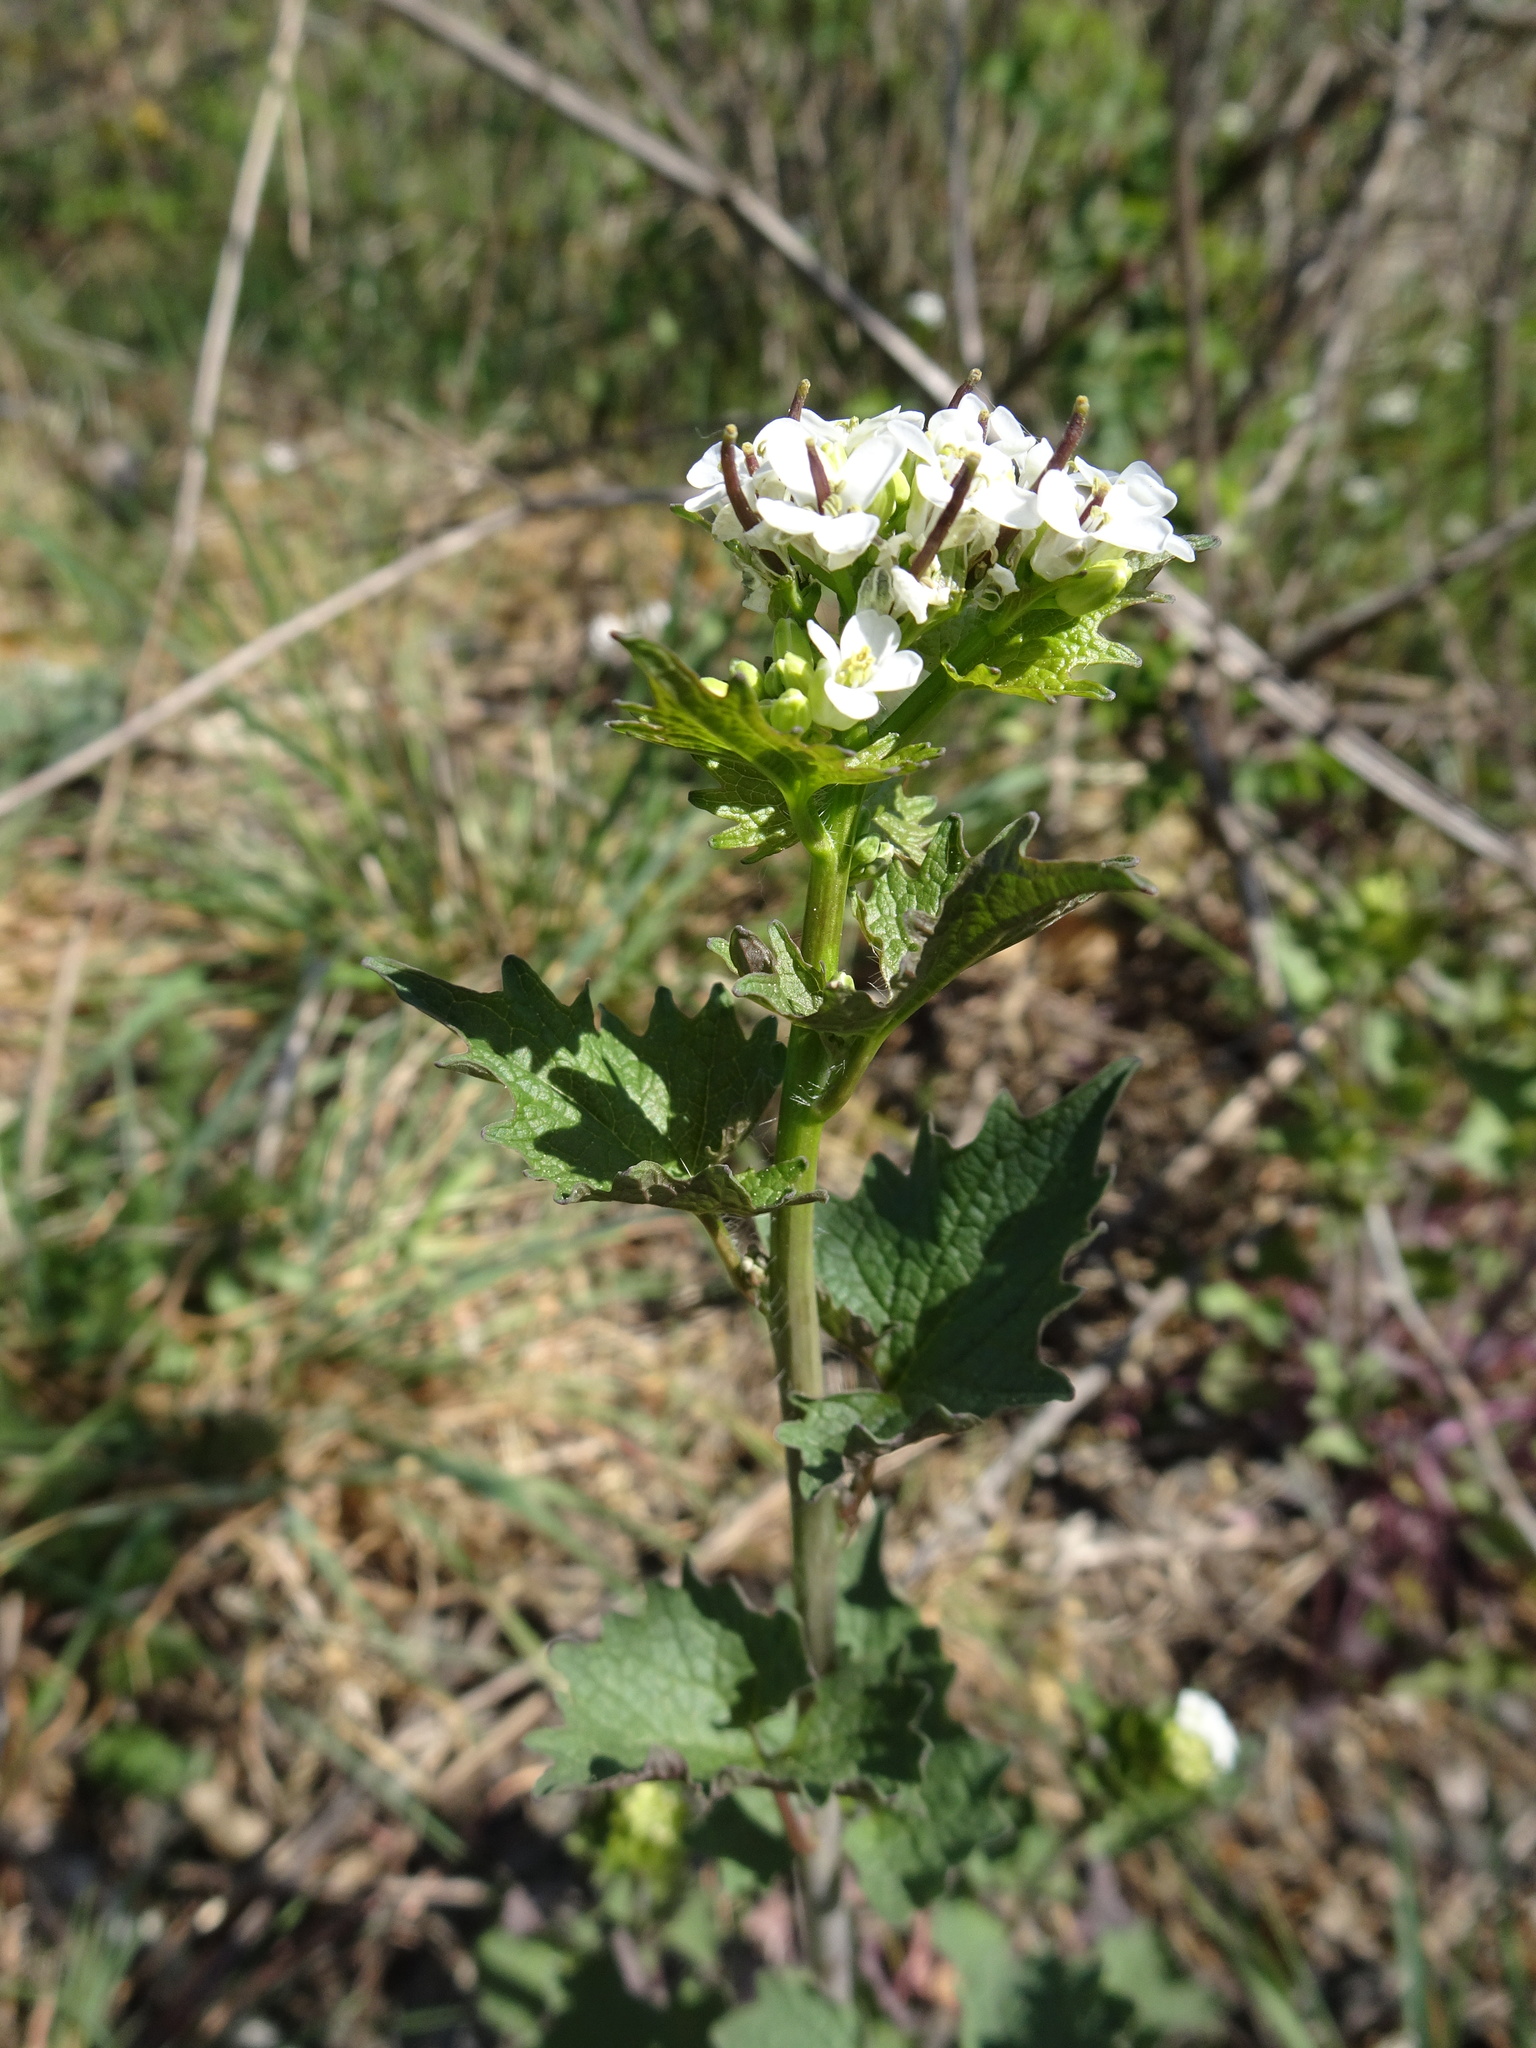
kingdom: Plantae
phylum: Tracheophyta
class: Magnoliopsida
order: Brassicales
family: Brassicaceae
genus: Alliaria
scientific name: Alliaria petiolata
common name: Garlic mustard
